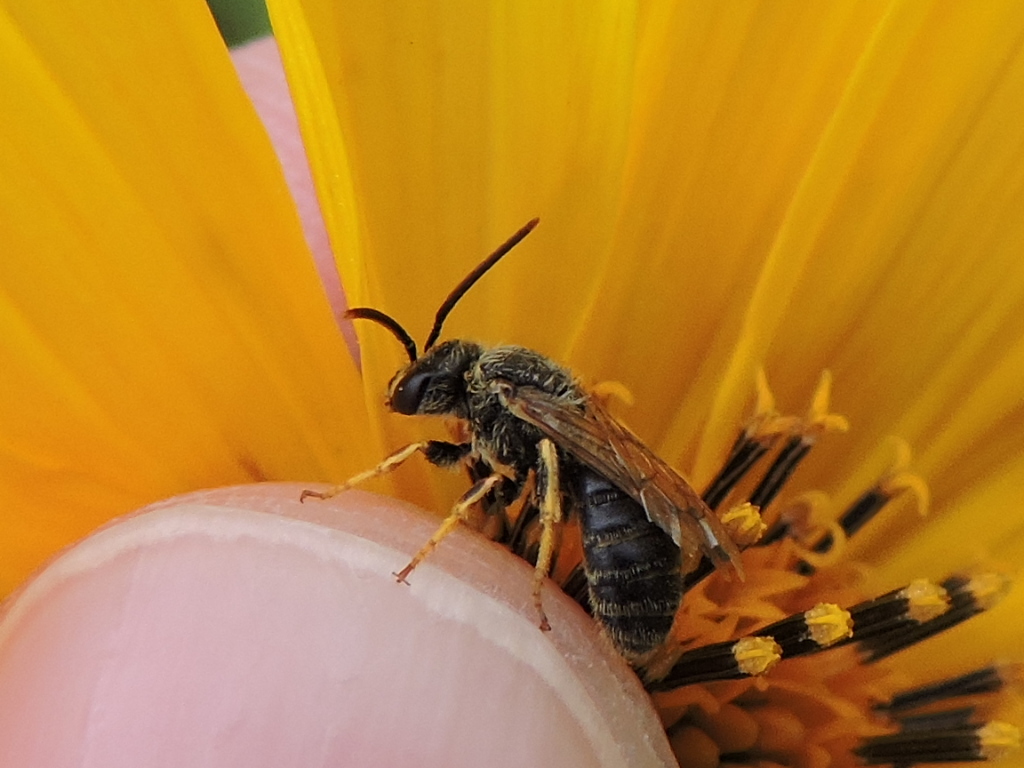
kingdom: Animalia
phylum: Arthropoda
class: Insecta
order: Hymenoptera
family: Halictidae
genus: Halictus
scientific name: Halictus ligatus
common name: Ligated furrow bee
